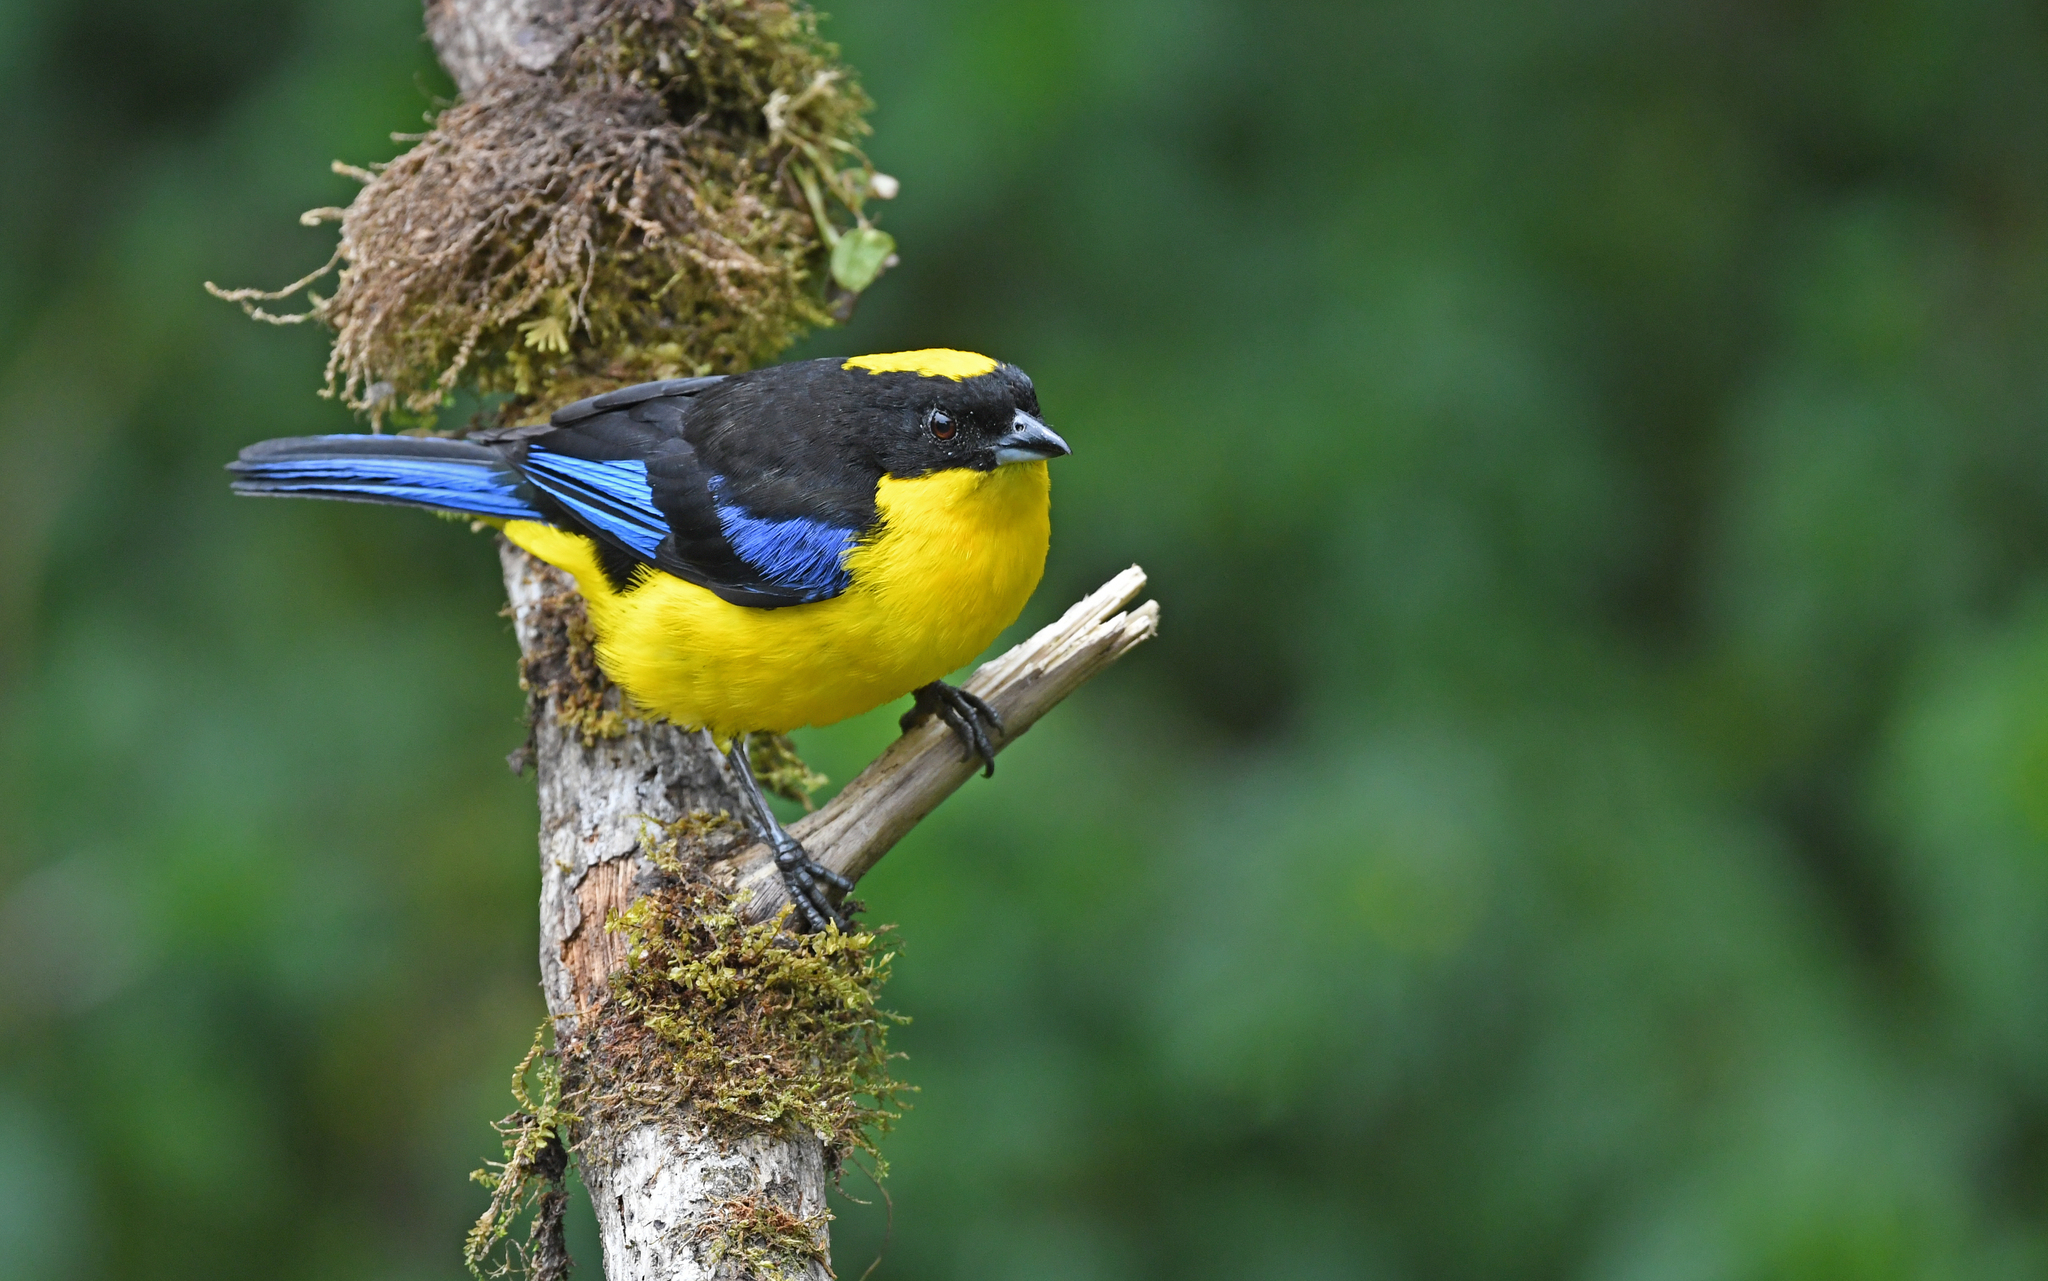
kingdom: Animalia
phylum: Chordata
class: Aves
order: Passeriformes
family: Thraupidae
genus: Anisognathus
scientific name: Anisognathus somptuosus
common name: Blue-winged mountain-tanager
